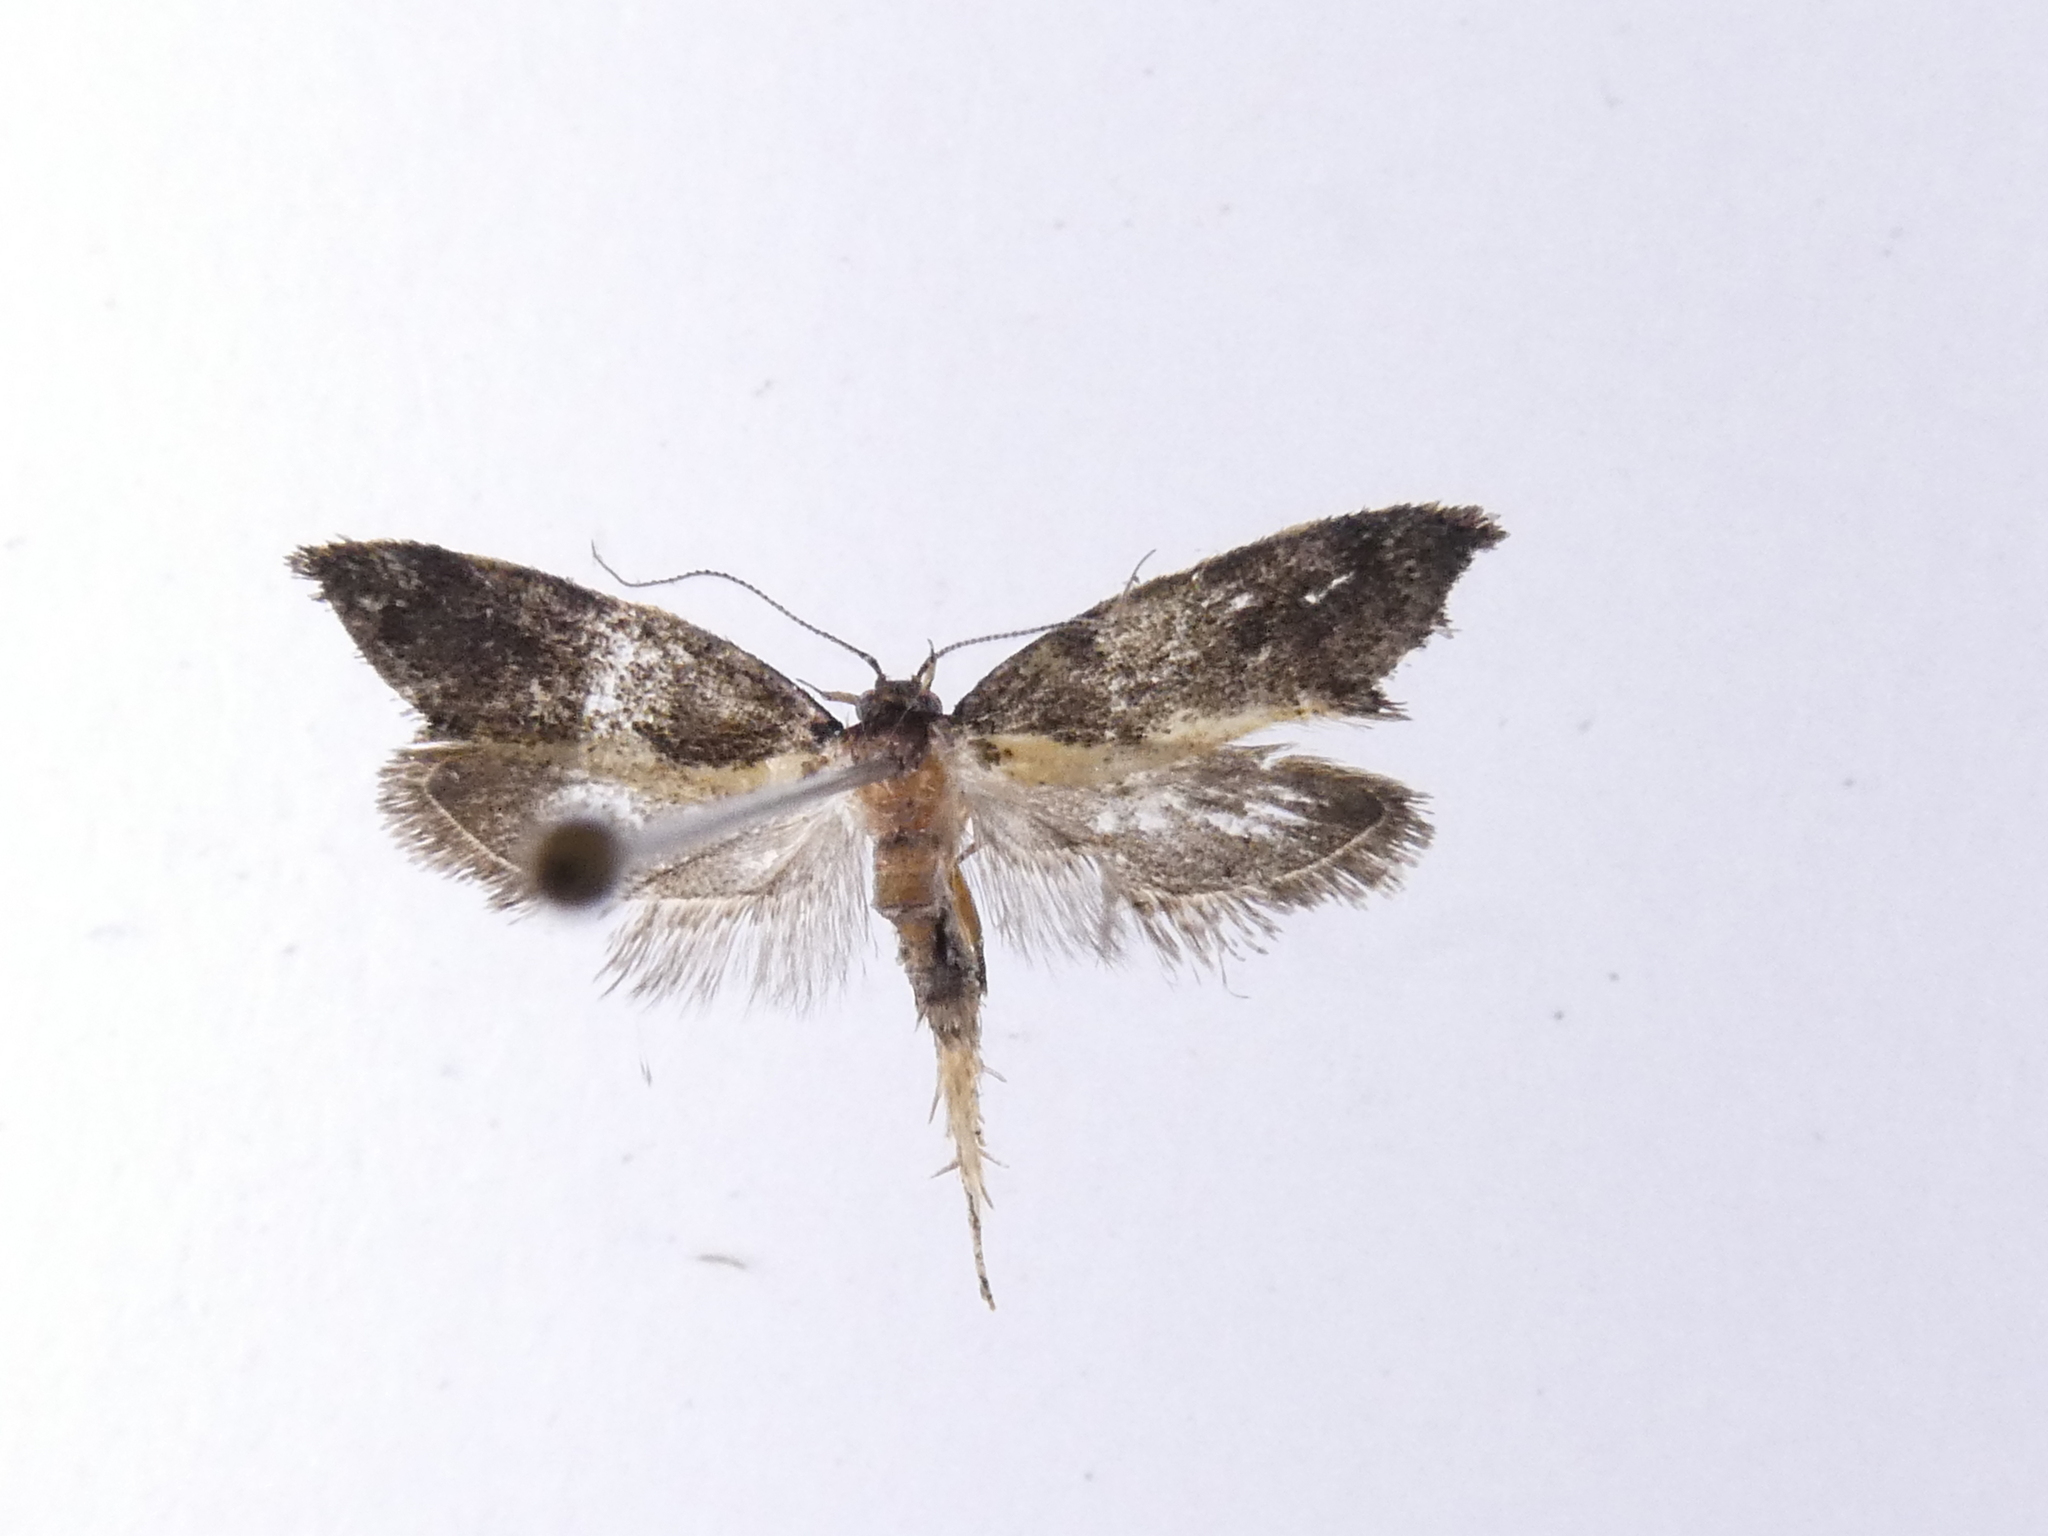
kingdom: Animalia
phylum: Arthropoda
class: Insecta
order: Lepidoptera
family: Oecophoridae
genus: Tingena
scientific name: Tingena basella
